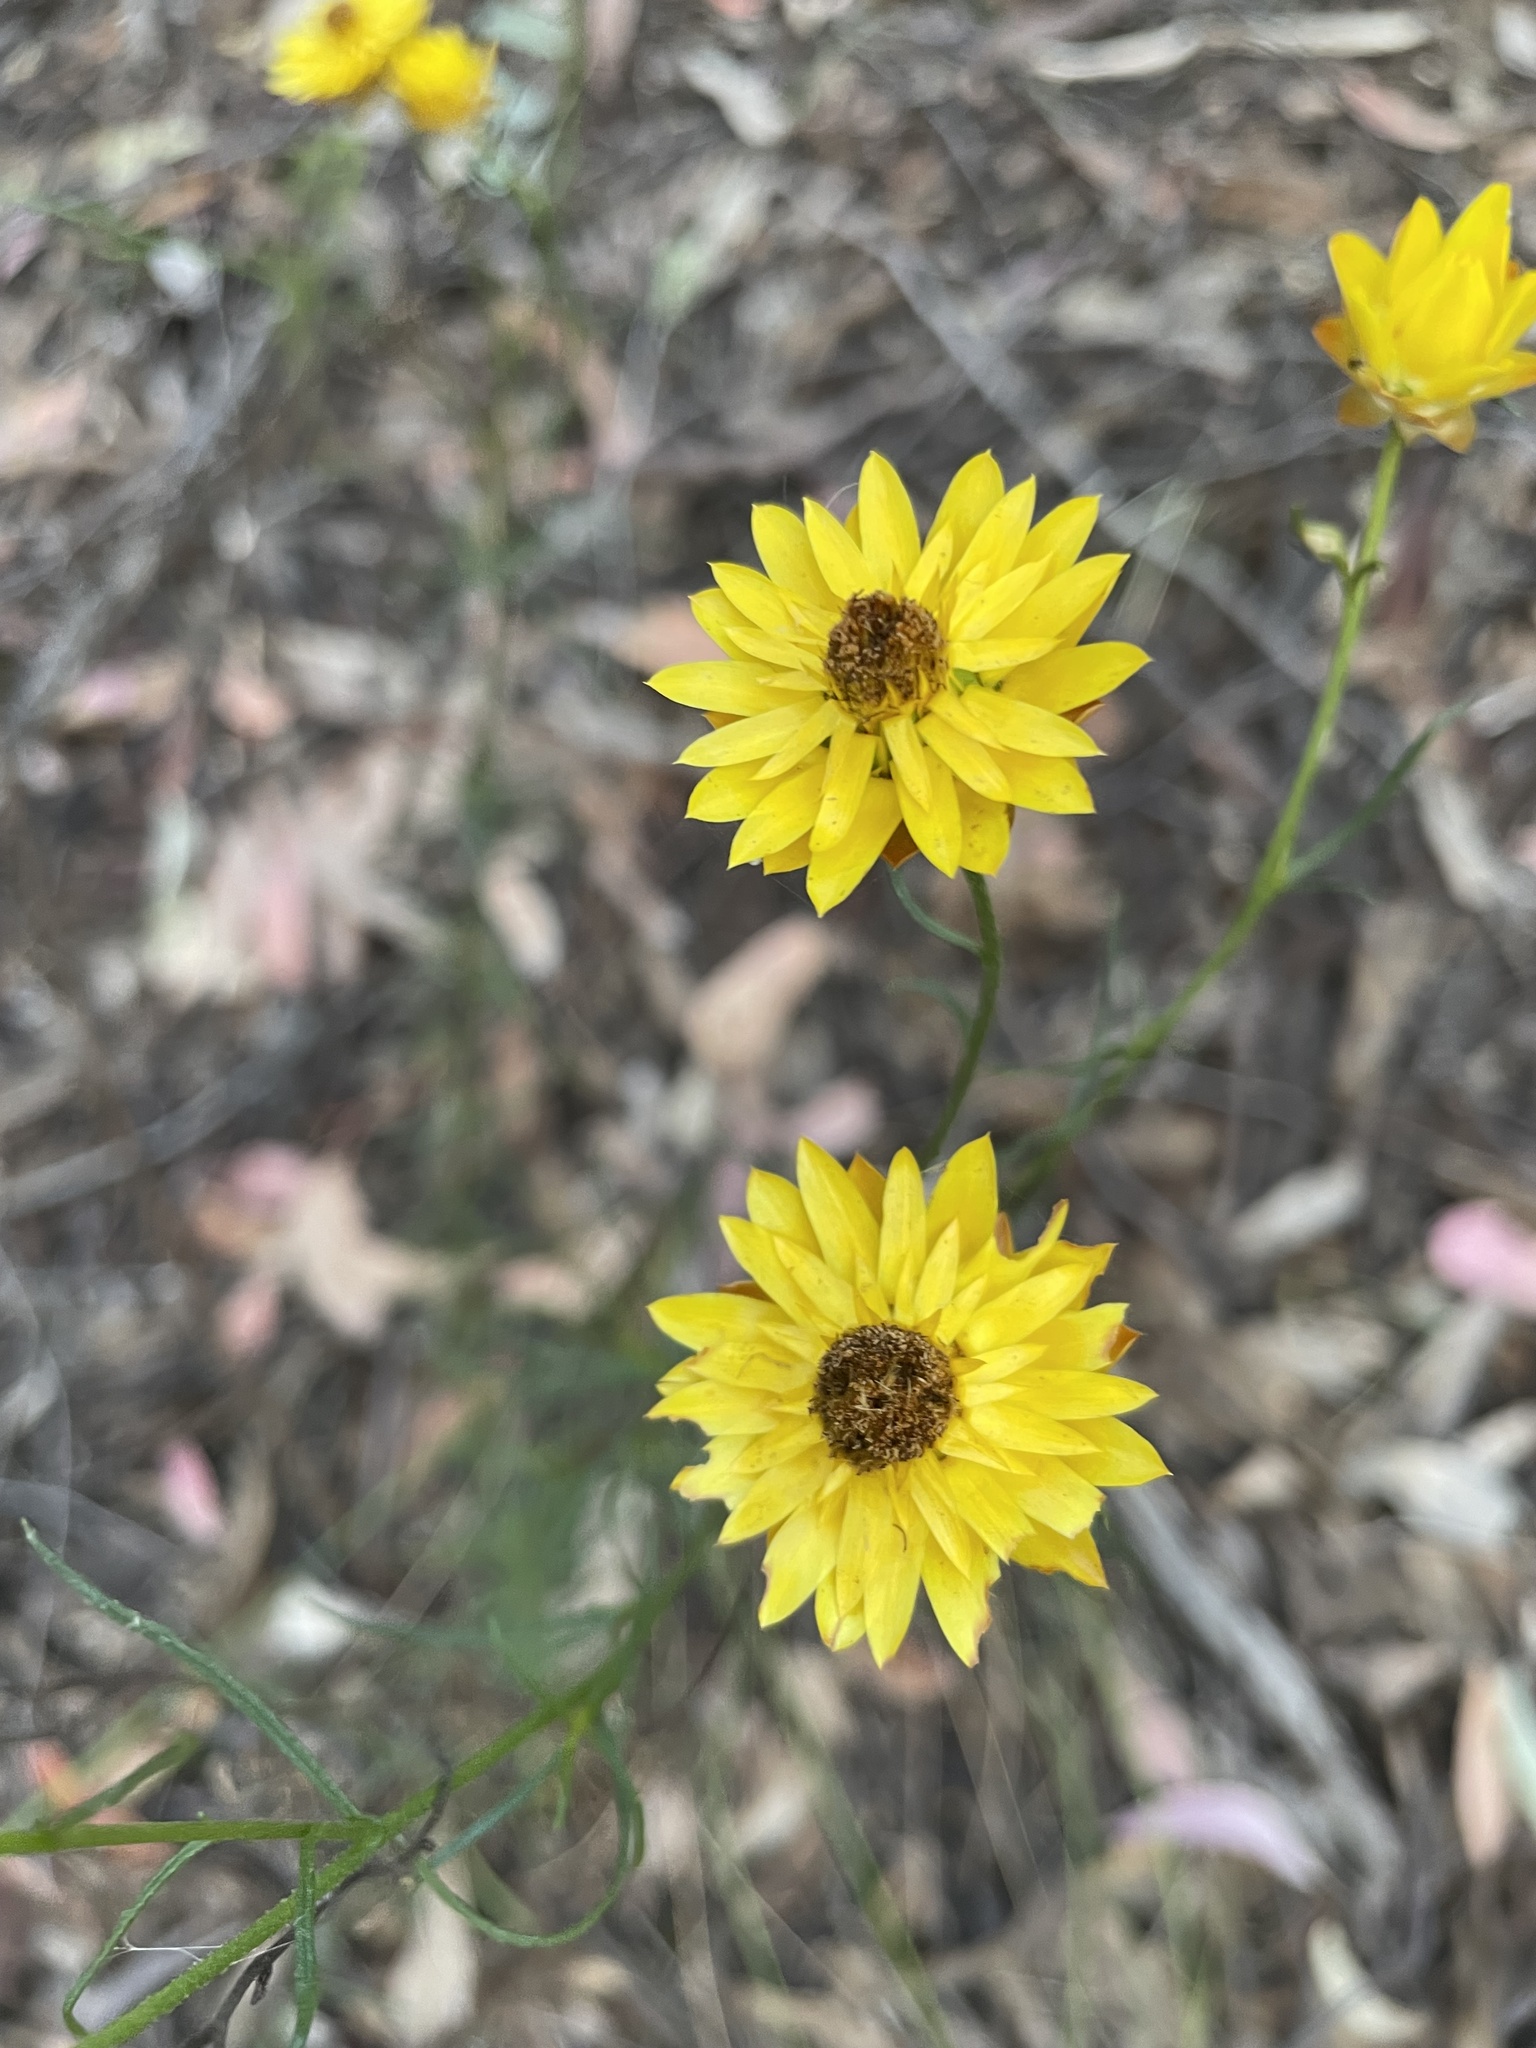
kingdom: Plantae
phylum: Tracheophyta
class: Magnoliopsida
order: Asterales
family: Asteraceae
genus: Xerochrysum
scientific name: Xerochrysum viscosum
